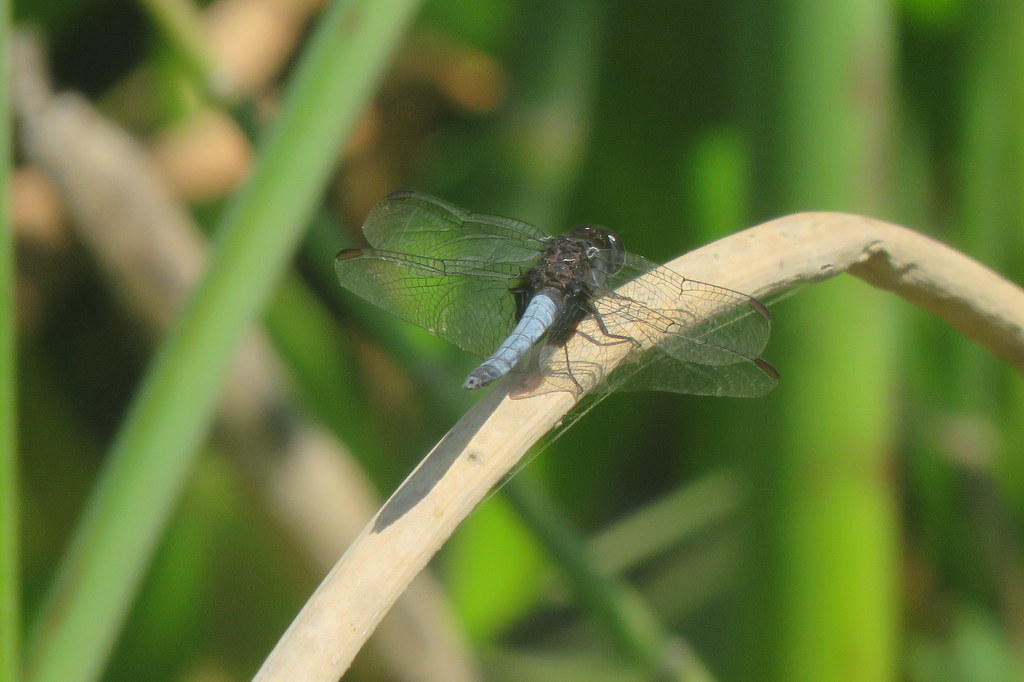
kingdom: Animalia
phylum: Arthropoda
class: Insecta
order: Odonata
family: Libellulidae
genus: Erythrodiplax
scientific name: Erythrodiplax media
